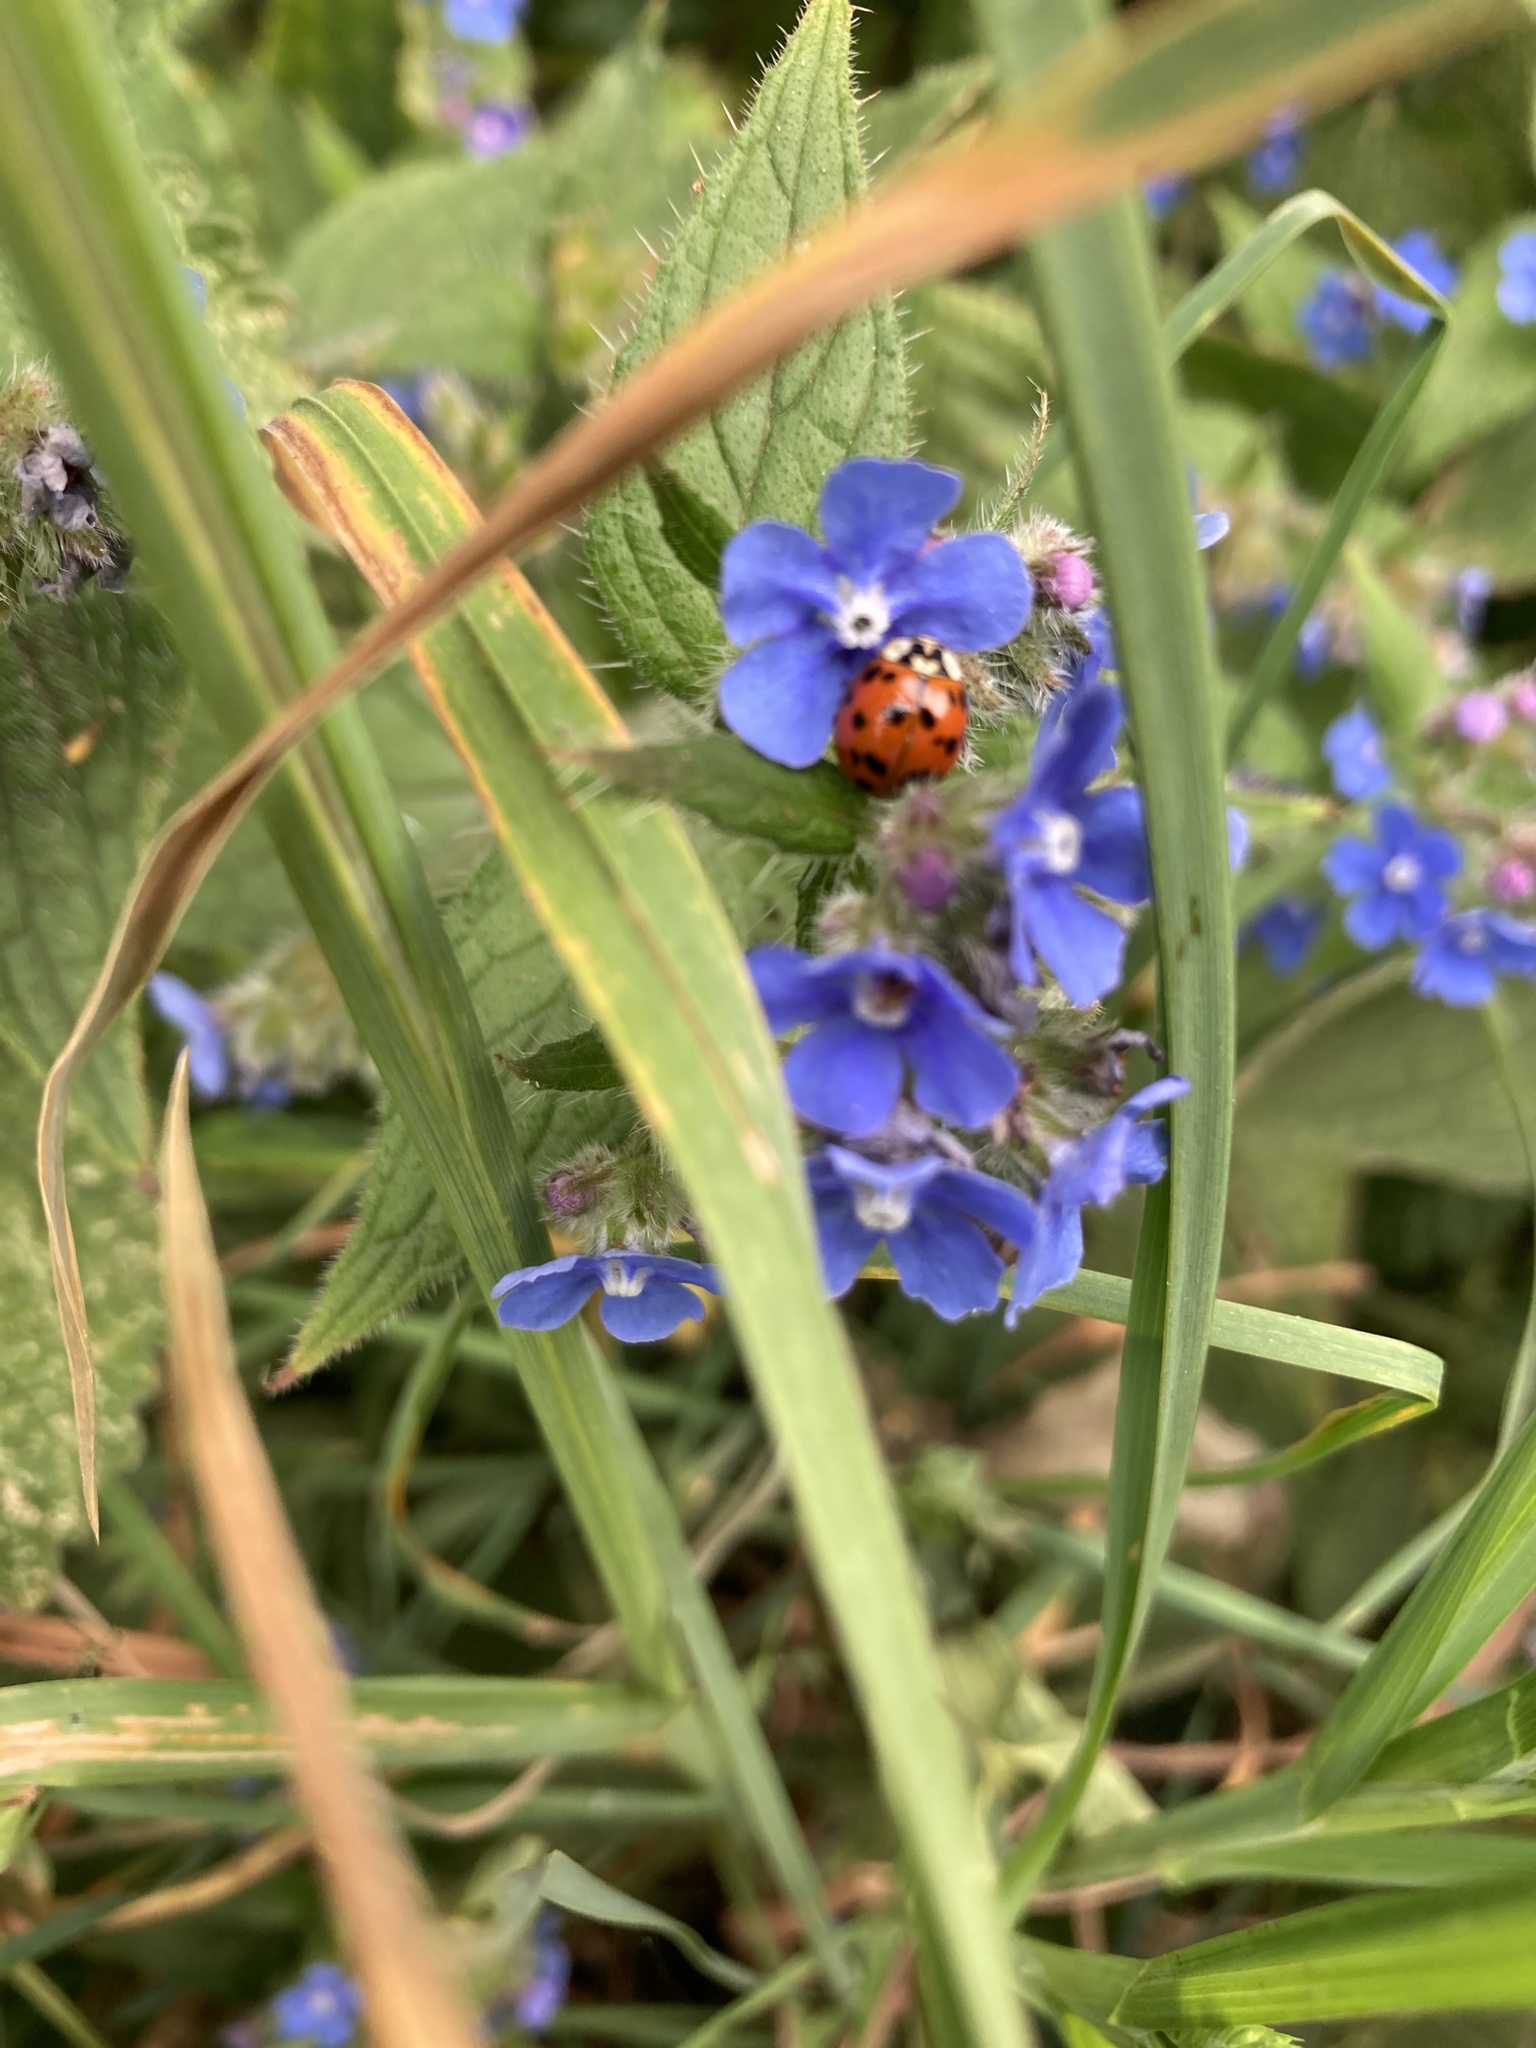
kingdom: Animalia
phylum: Arthropoda
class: Insecta
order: Coleoptera
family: Coccinellidae
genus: Harmonia
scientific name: Harmonia axyridis
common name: Harlequin ladybird
